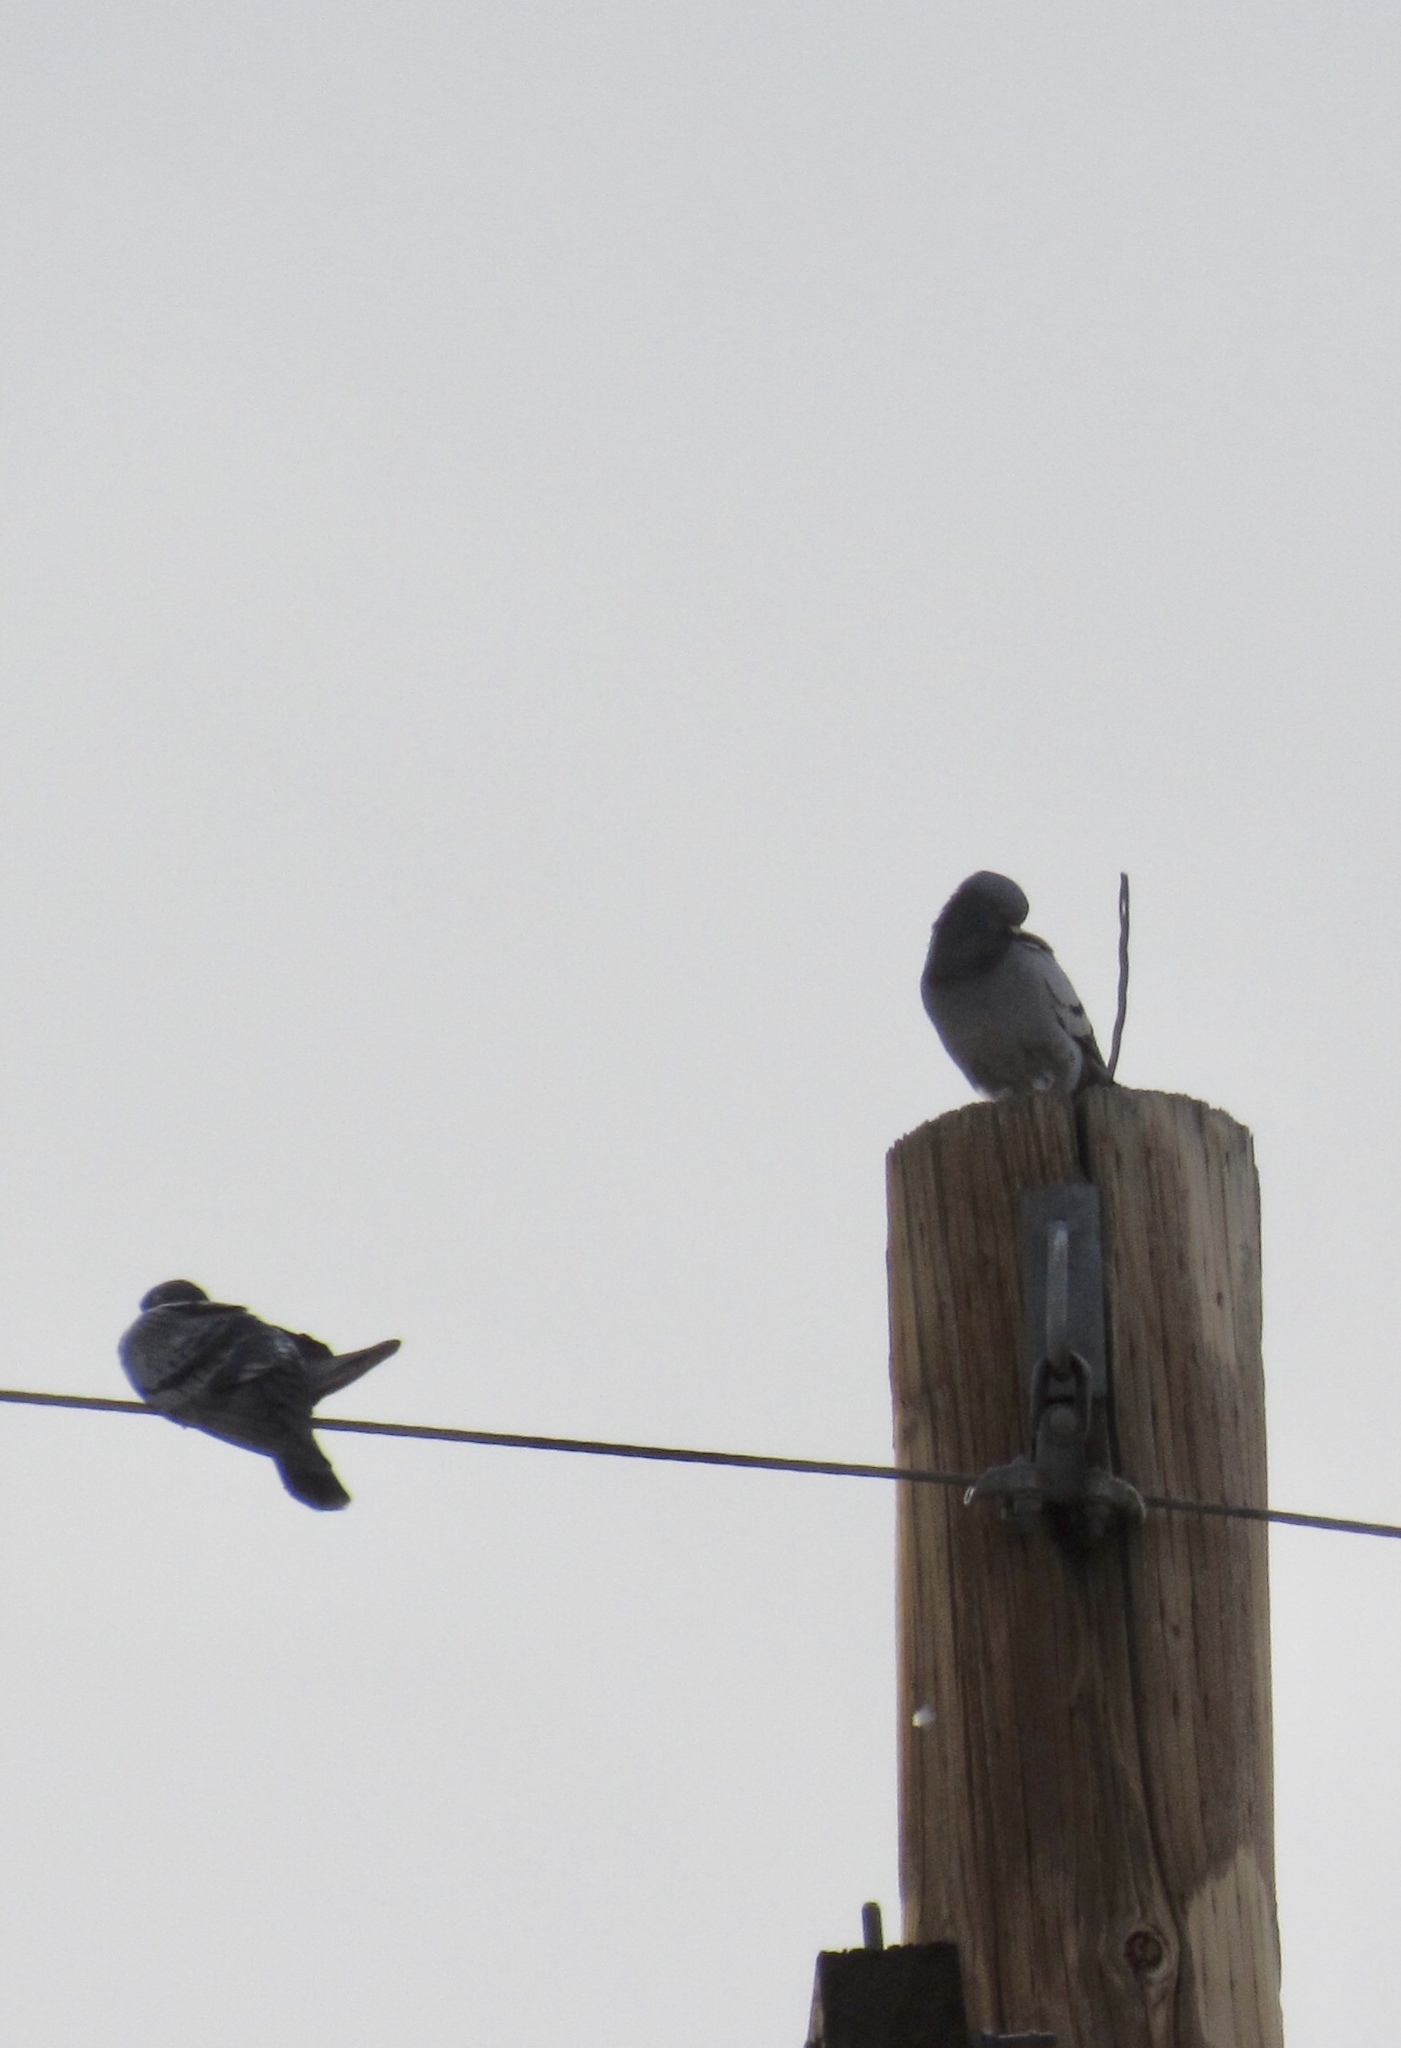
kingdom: Animalia
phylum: Chordata
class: Aves
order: Columbiformes
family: Columbidae
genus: Columba
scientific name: Columba livia
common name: Rock pigeon
